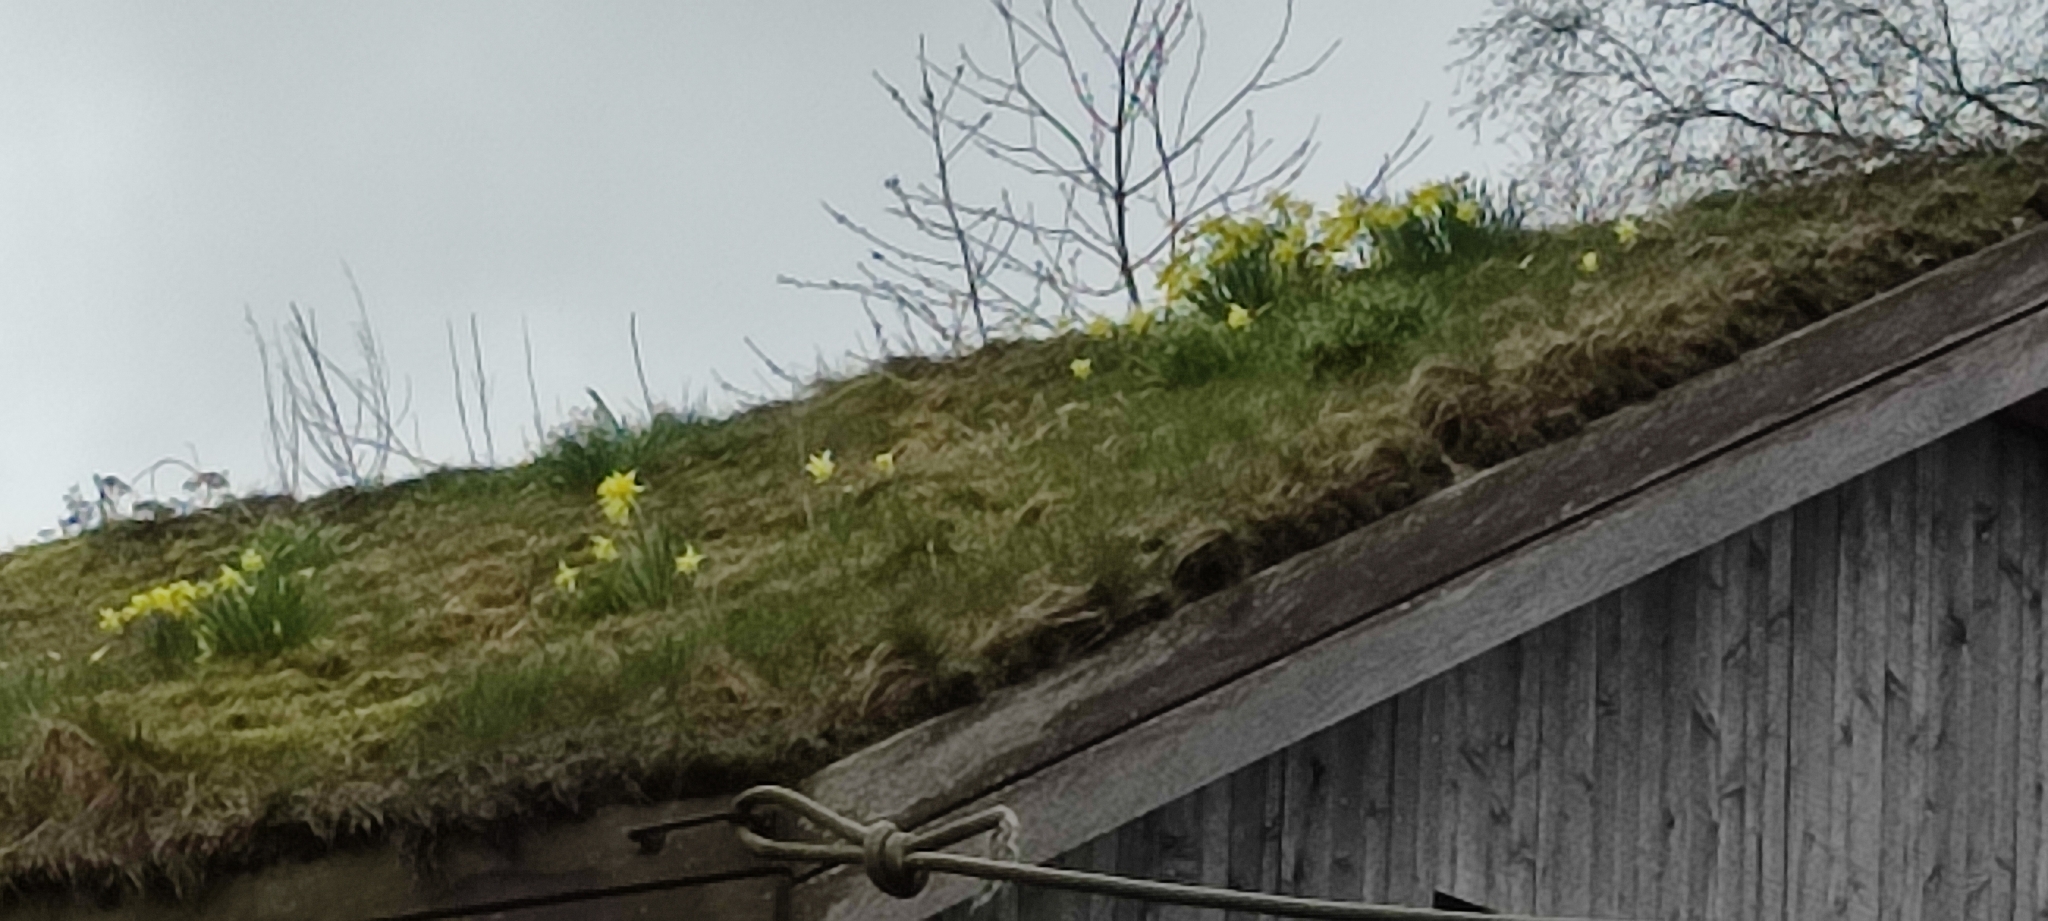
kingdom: Plantae
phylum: Tracheophyta
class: Liliopsida
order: Asparagales
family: Amaryllidaceae
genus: Narcissus
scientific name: Narcissus pseudonarcissus
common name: Daffodil
